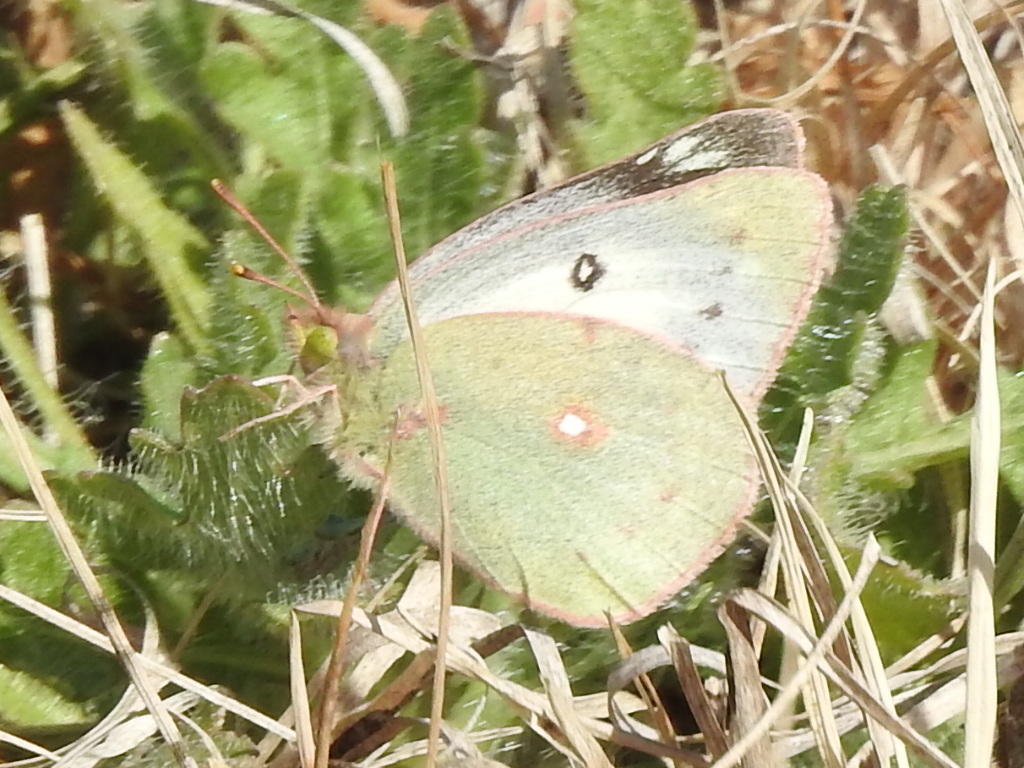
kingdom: Animalia
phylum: Arthropoda
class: Insecta
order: Lepidoptera
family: Pieridae
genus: Colias
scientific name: Colias eurytheme
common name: Alfalfa butterfly
